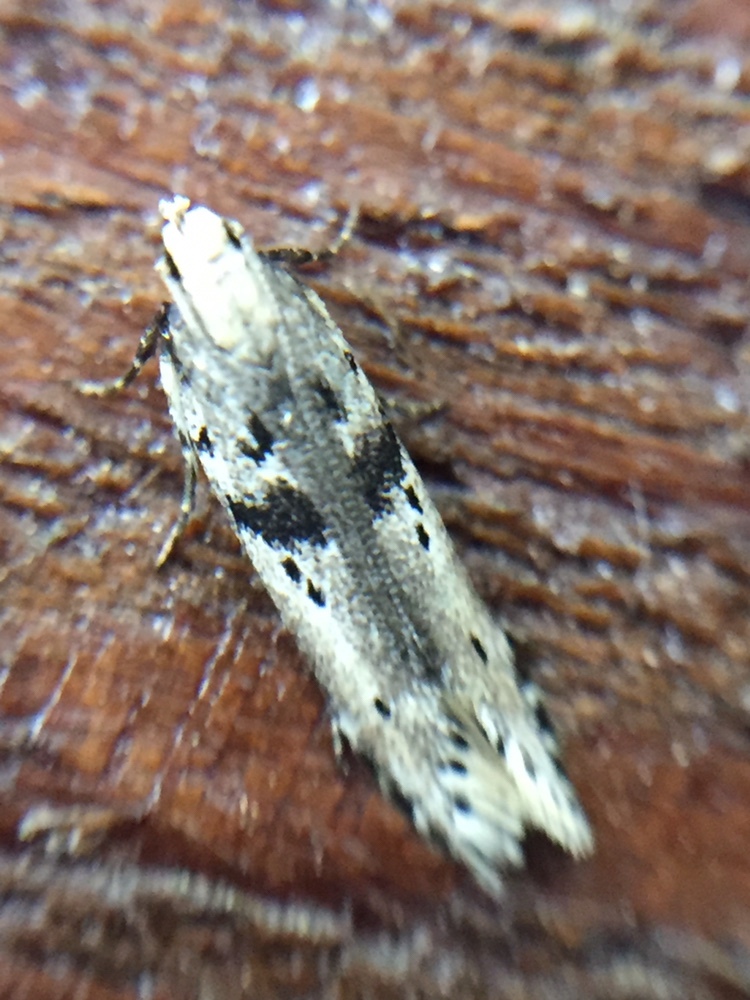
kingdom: Animalia
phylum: Arthropoda
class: Insecta
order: Lepidoptera
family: Gelechiidae
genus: Aristotelia
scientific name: Aristotelia paradesma
